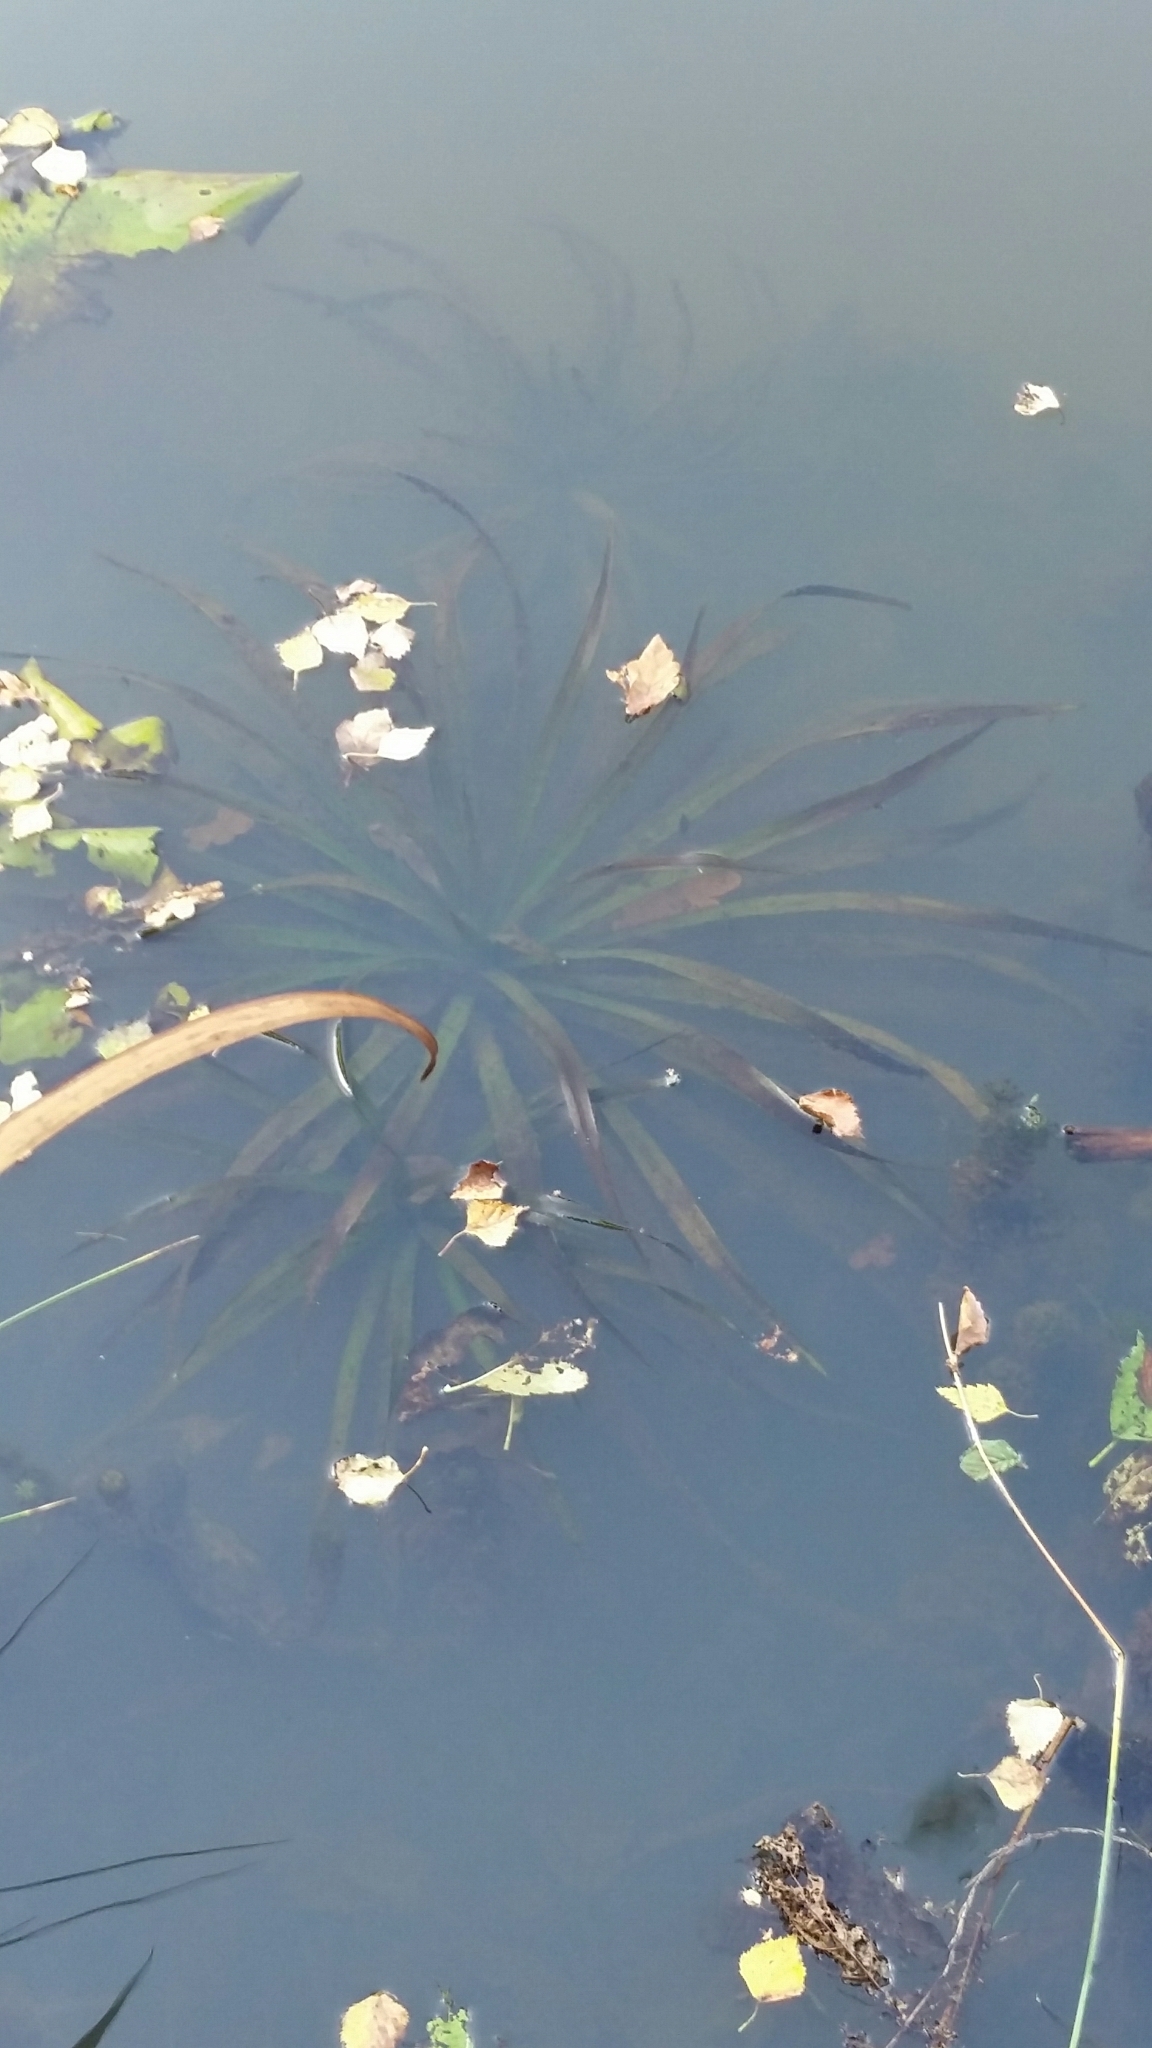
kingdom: Plantae
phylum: Tracheophyta
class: Liliopsida
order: Alismatales
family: Hydrocharitaceae
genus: Stratiotes
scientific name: Stratiotes aloides
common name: Water-soldier
